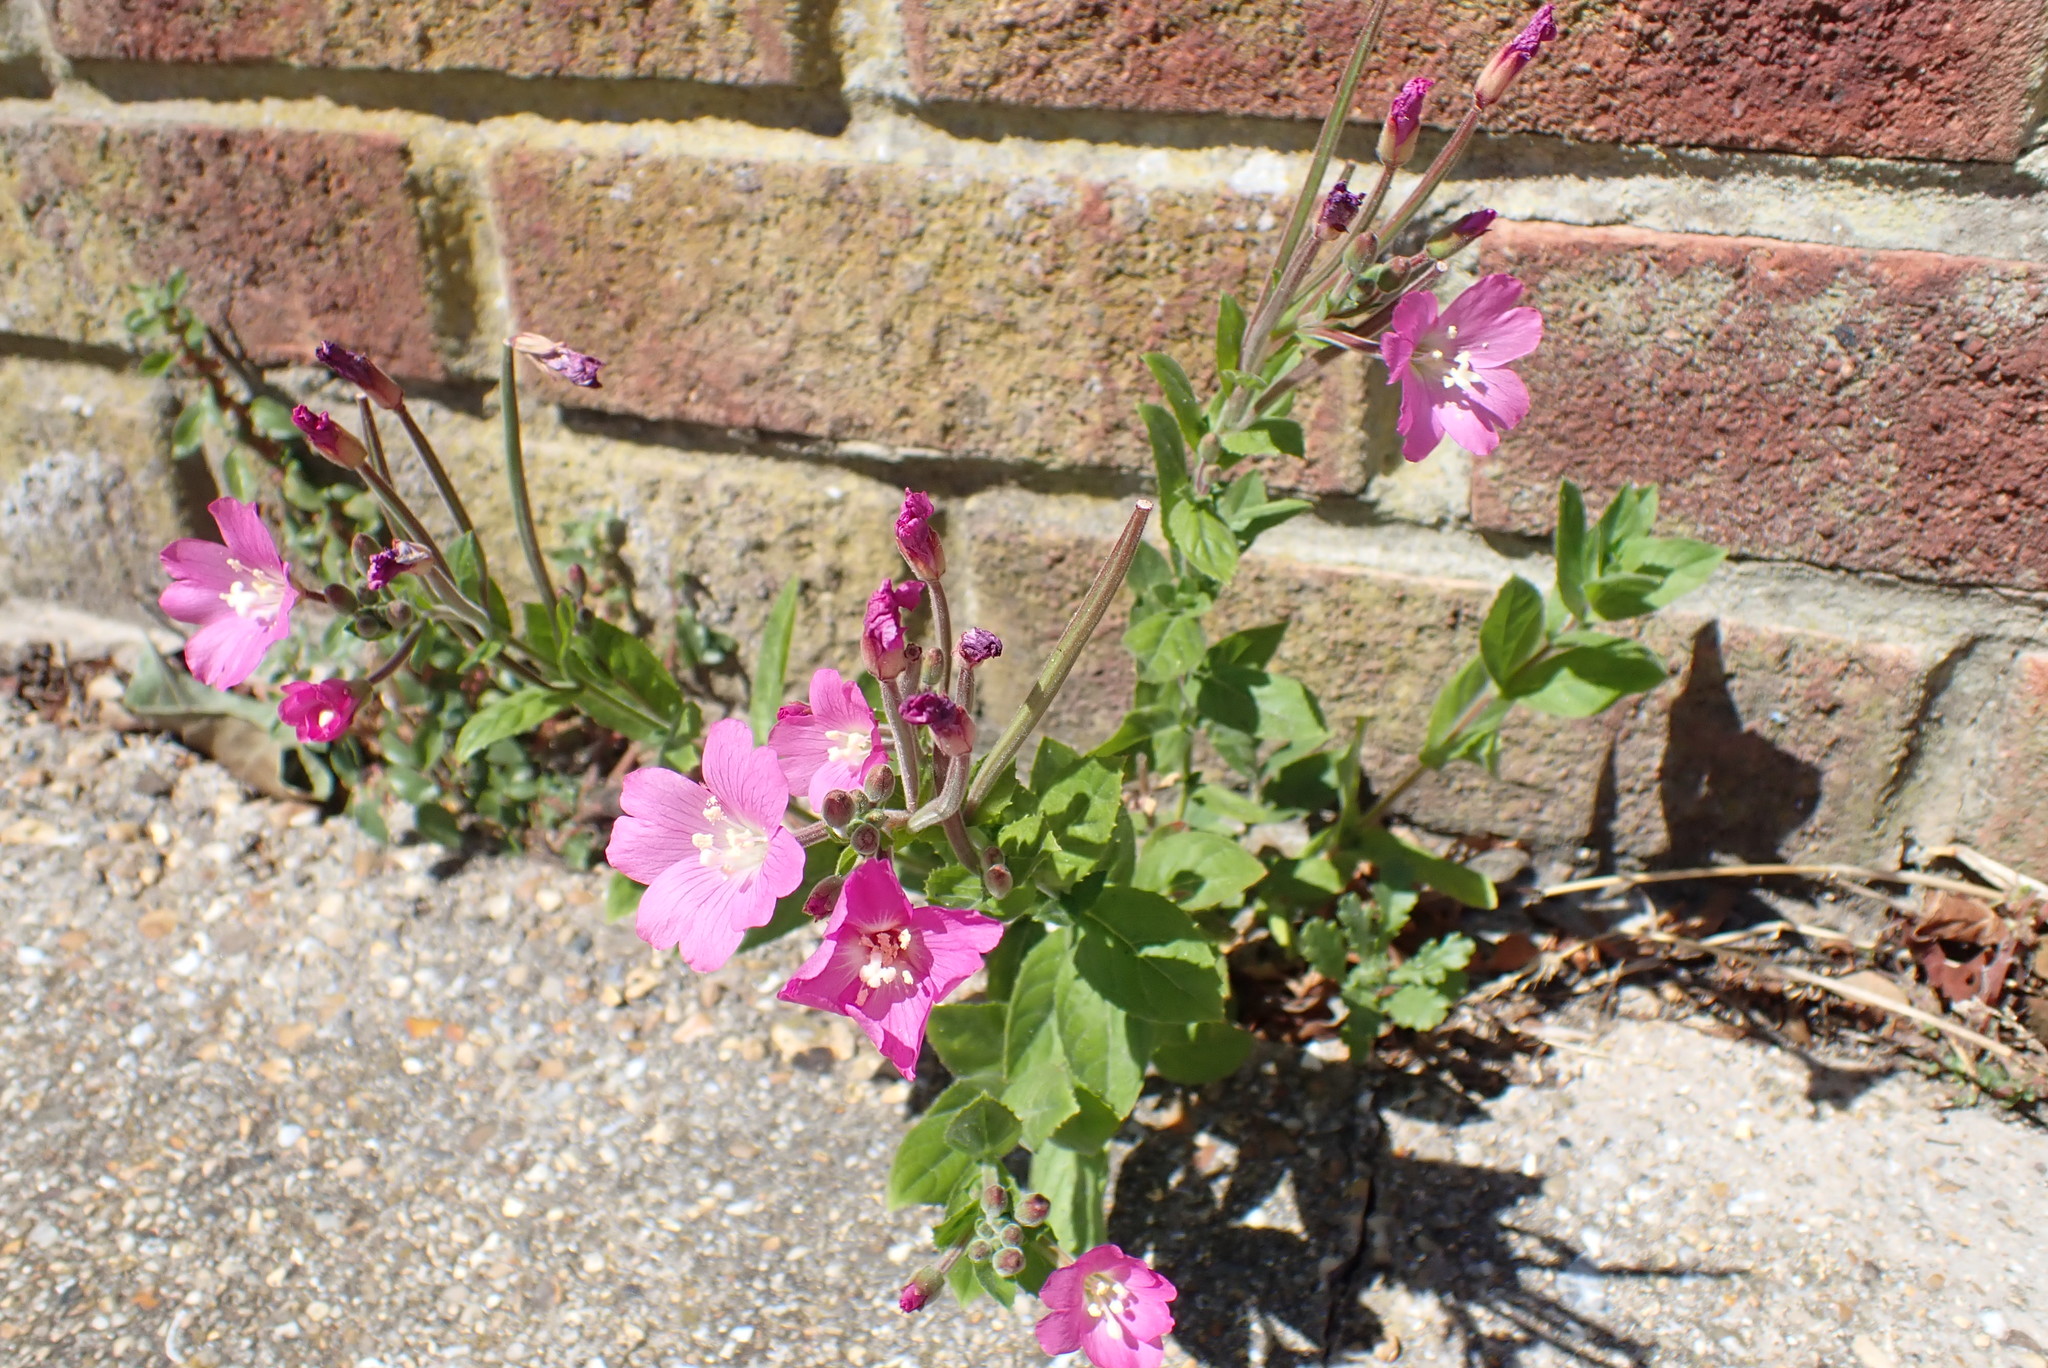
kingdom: Plantae
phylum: Tracheophyta
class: Magnoliopsida
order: Myrtales
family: Onagraceae
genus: Epilobium
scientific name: Epilobium hirsutum
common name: Great willowherb
